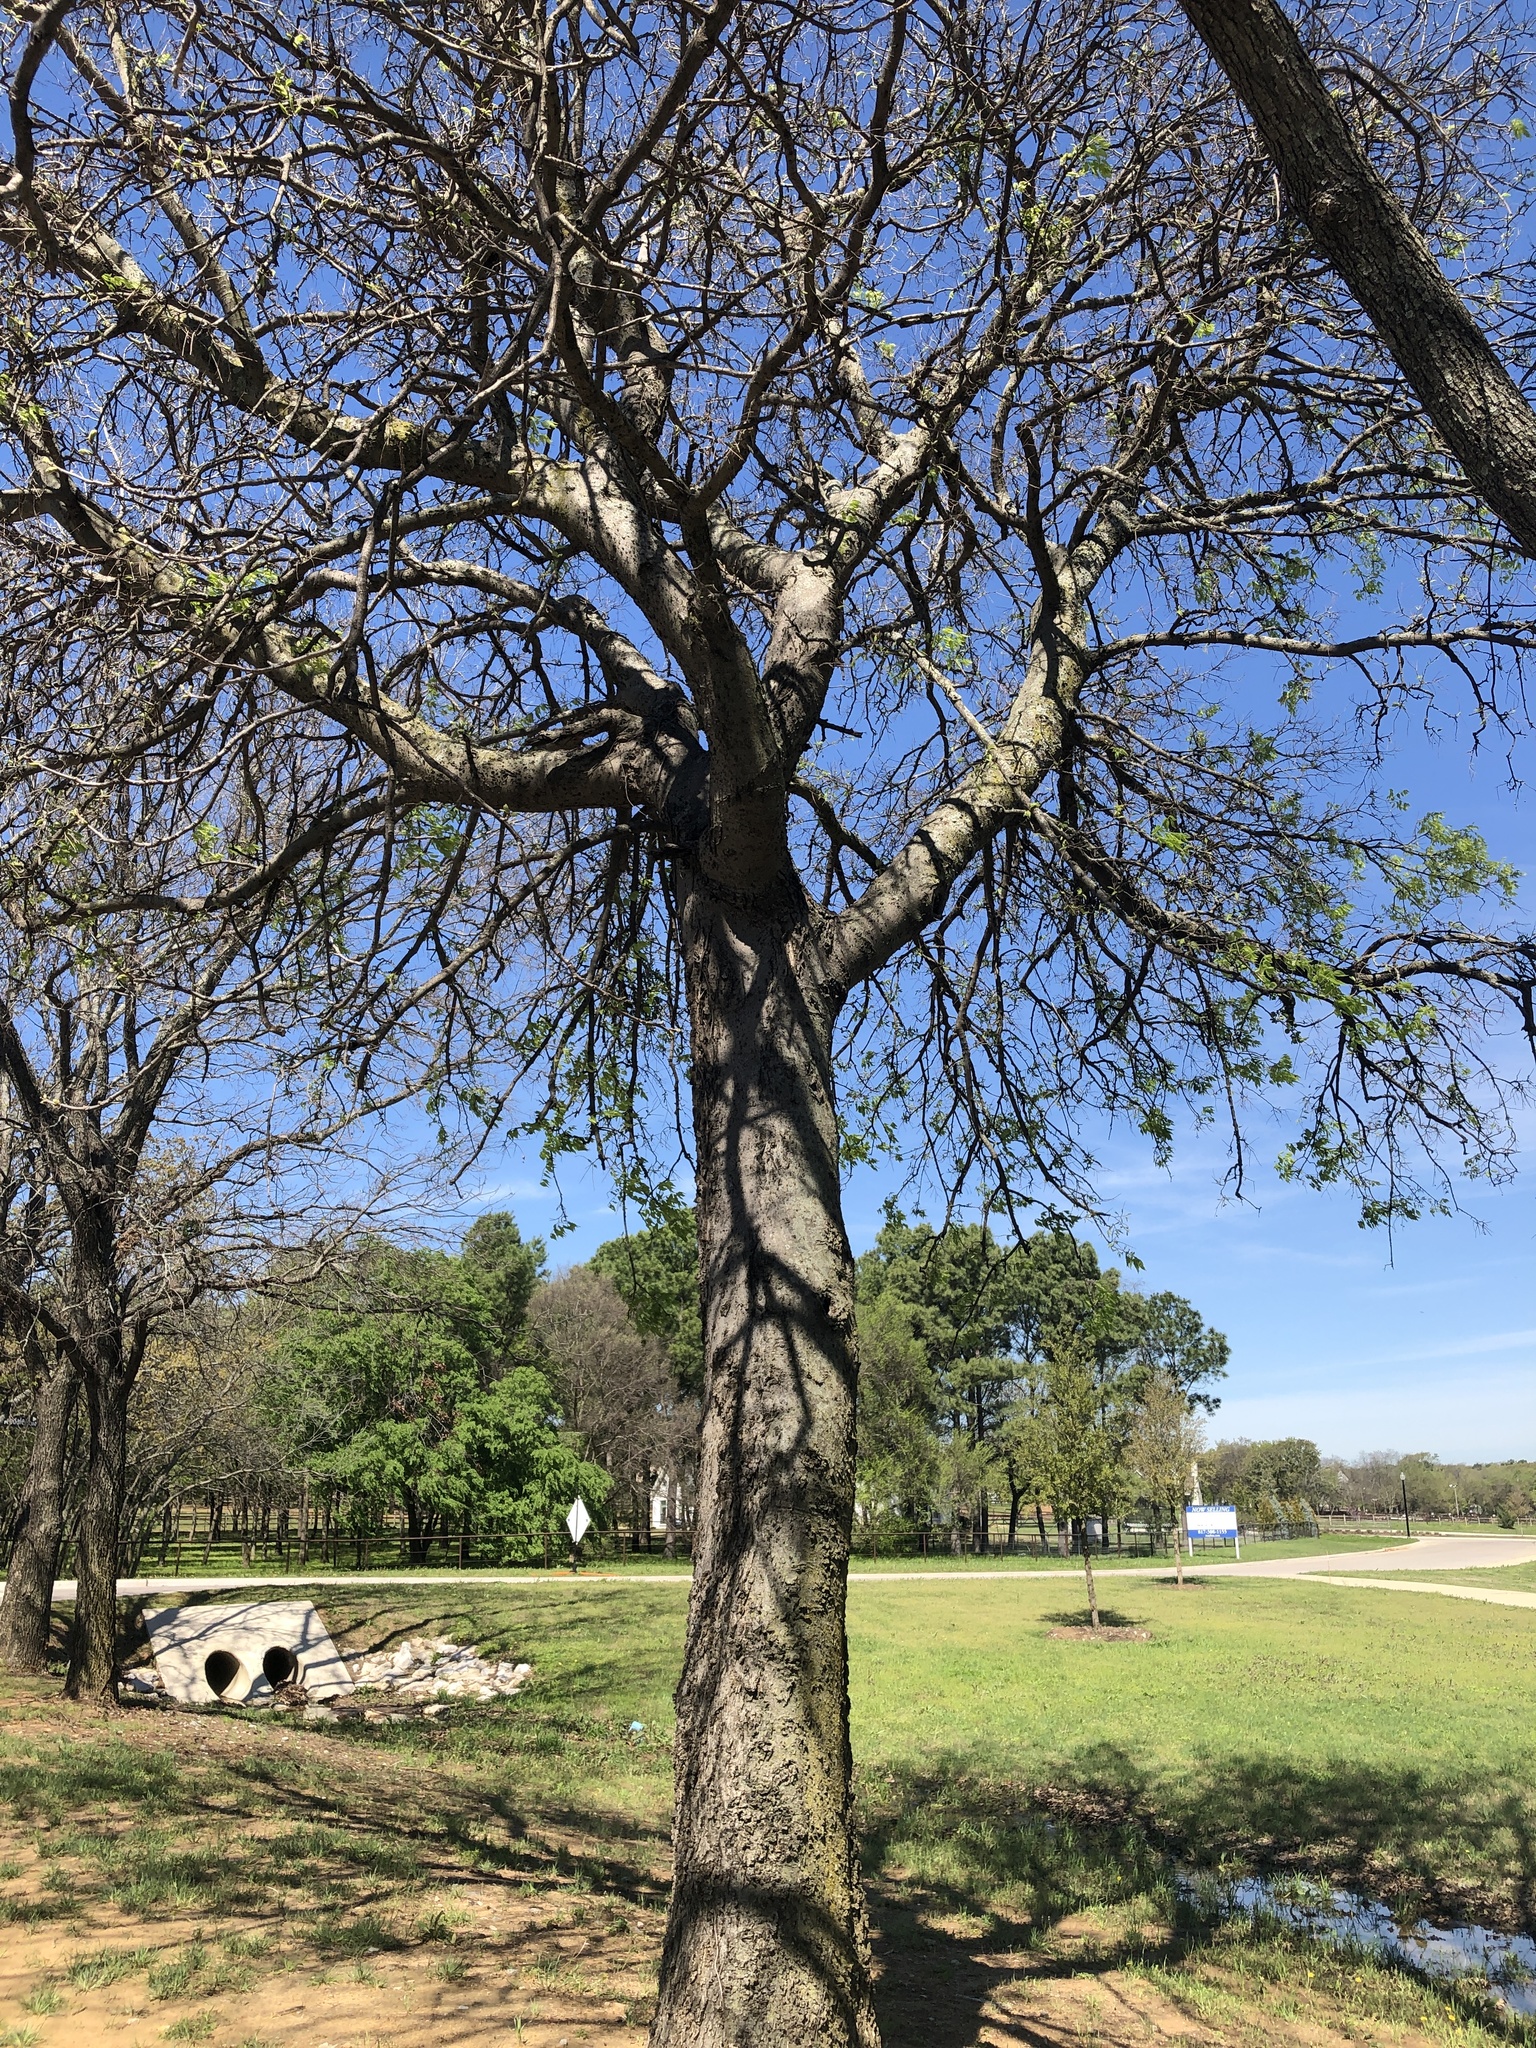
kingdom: Plantae
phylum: Tracheophyta
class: Magnoliopsida
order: Rosales
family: Cannabaceae
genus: Celtis
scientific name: Celtis laevigata
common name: Sugarberry
